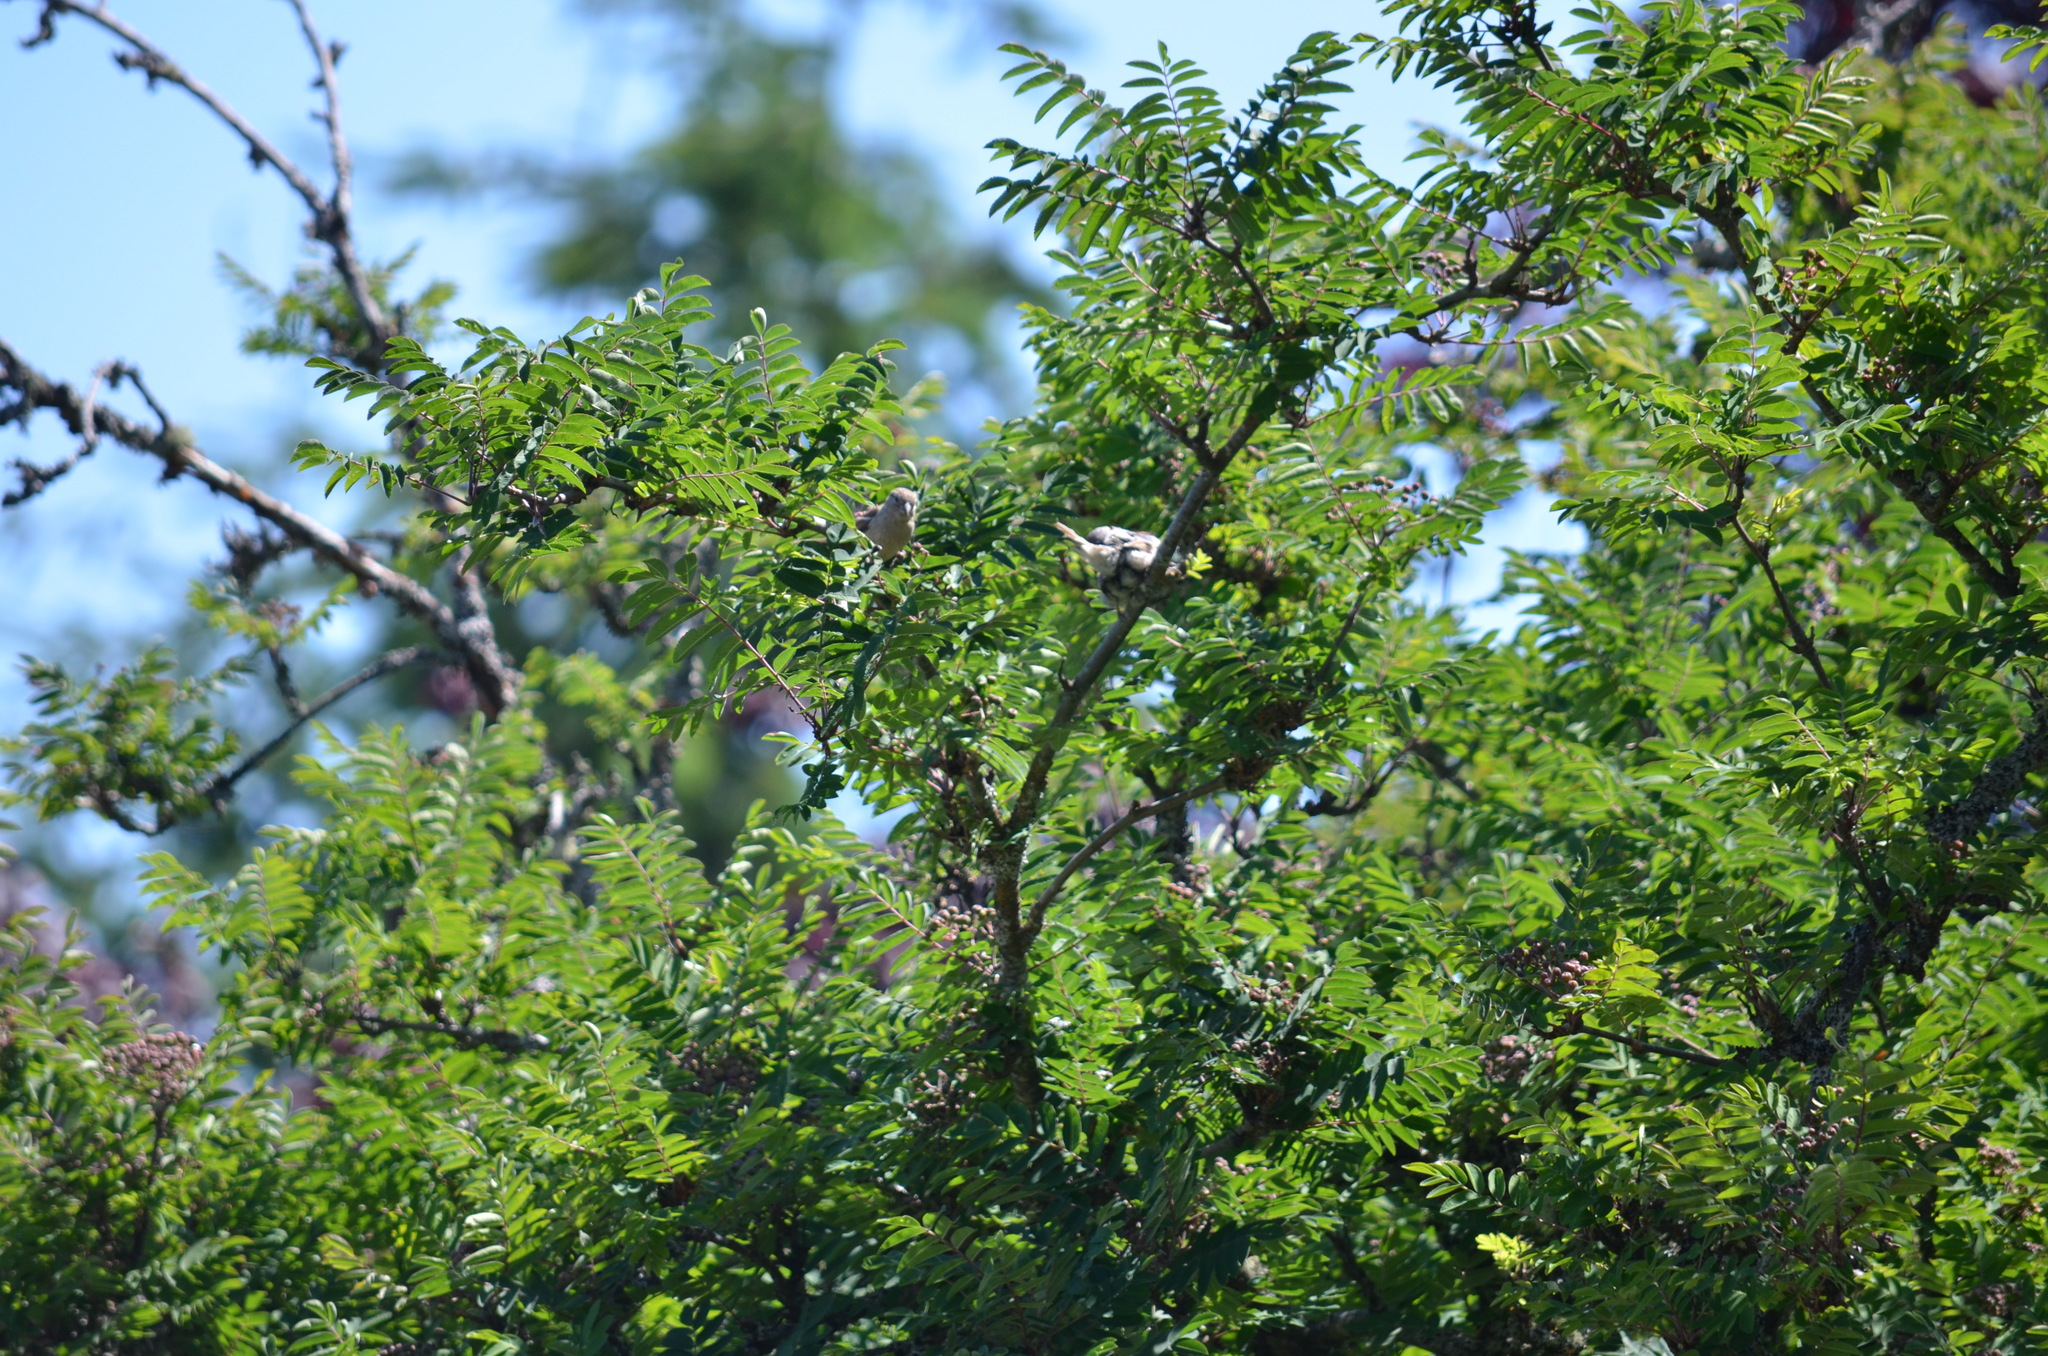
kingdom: Animalia
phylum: Chordata
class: Aves
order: Passeriformes
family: Passeridae
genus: Passer
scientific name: Passer domesticus
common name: House sparrow
